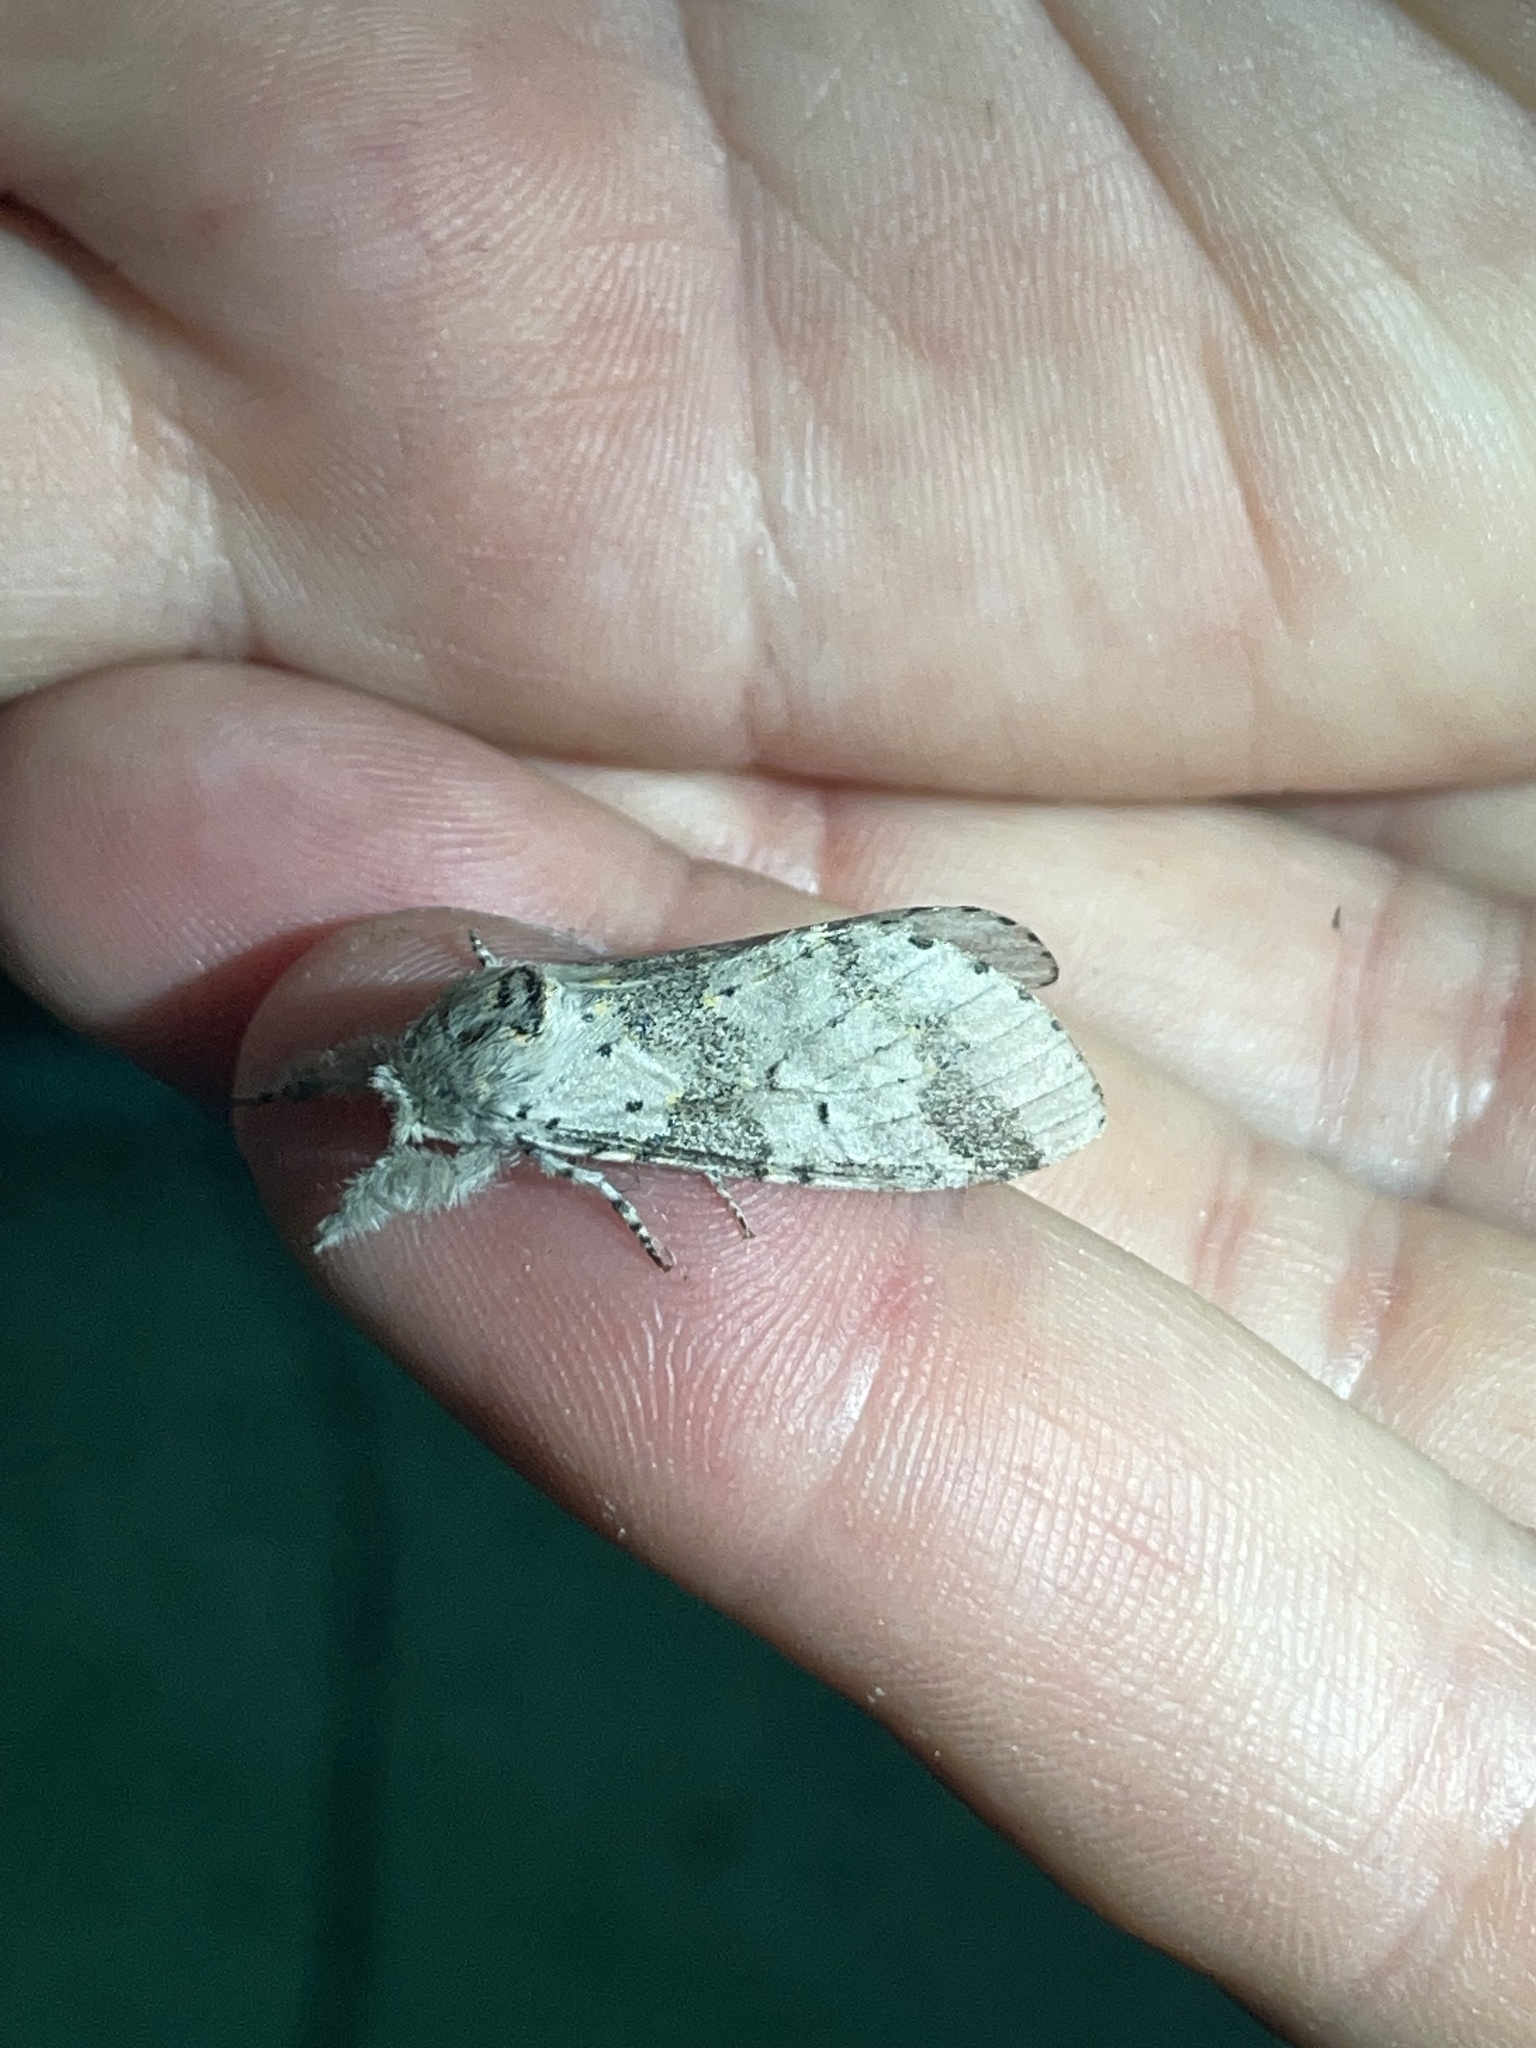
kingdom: Animalia
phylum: Arthropoda
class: Insecta
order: Lepidoptera
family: Notodontidae
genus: Furcula
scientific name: Furcula cinerea
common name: Gray furcula
